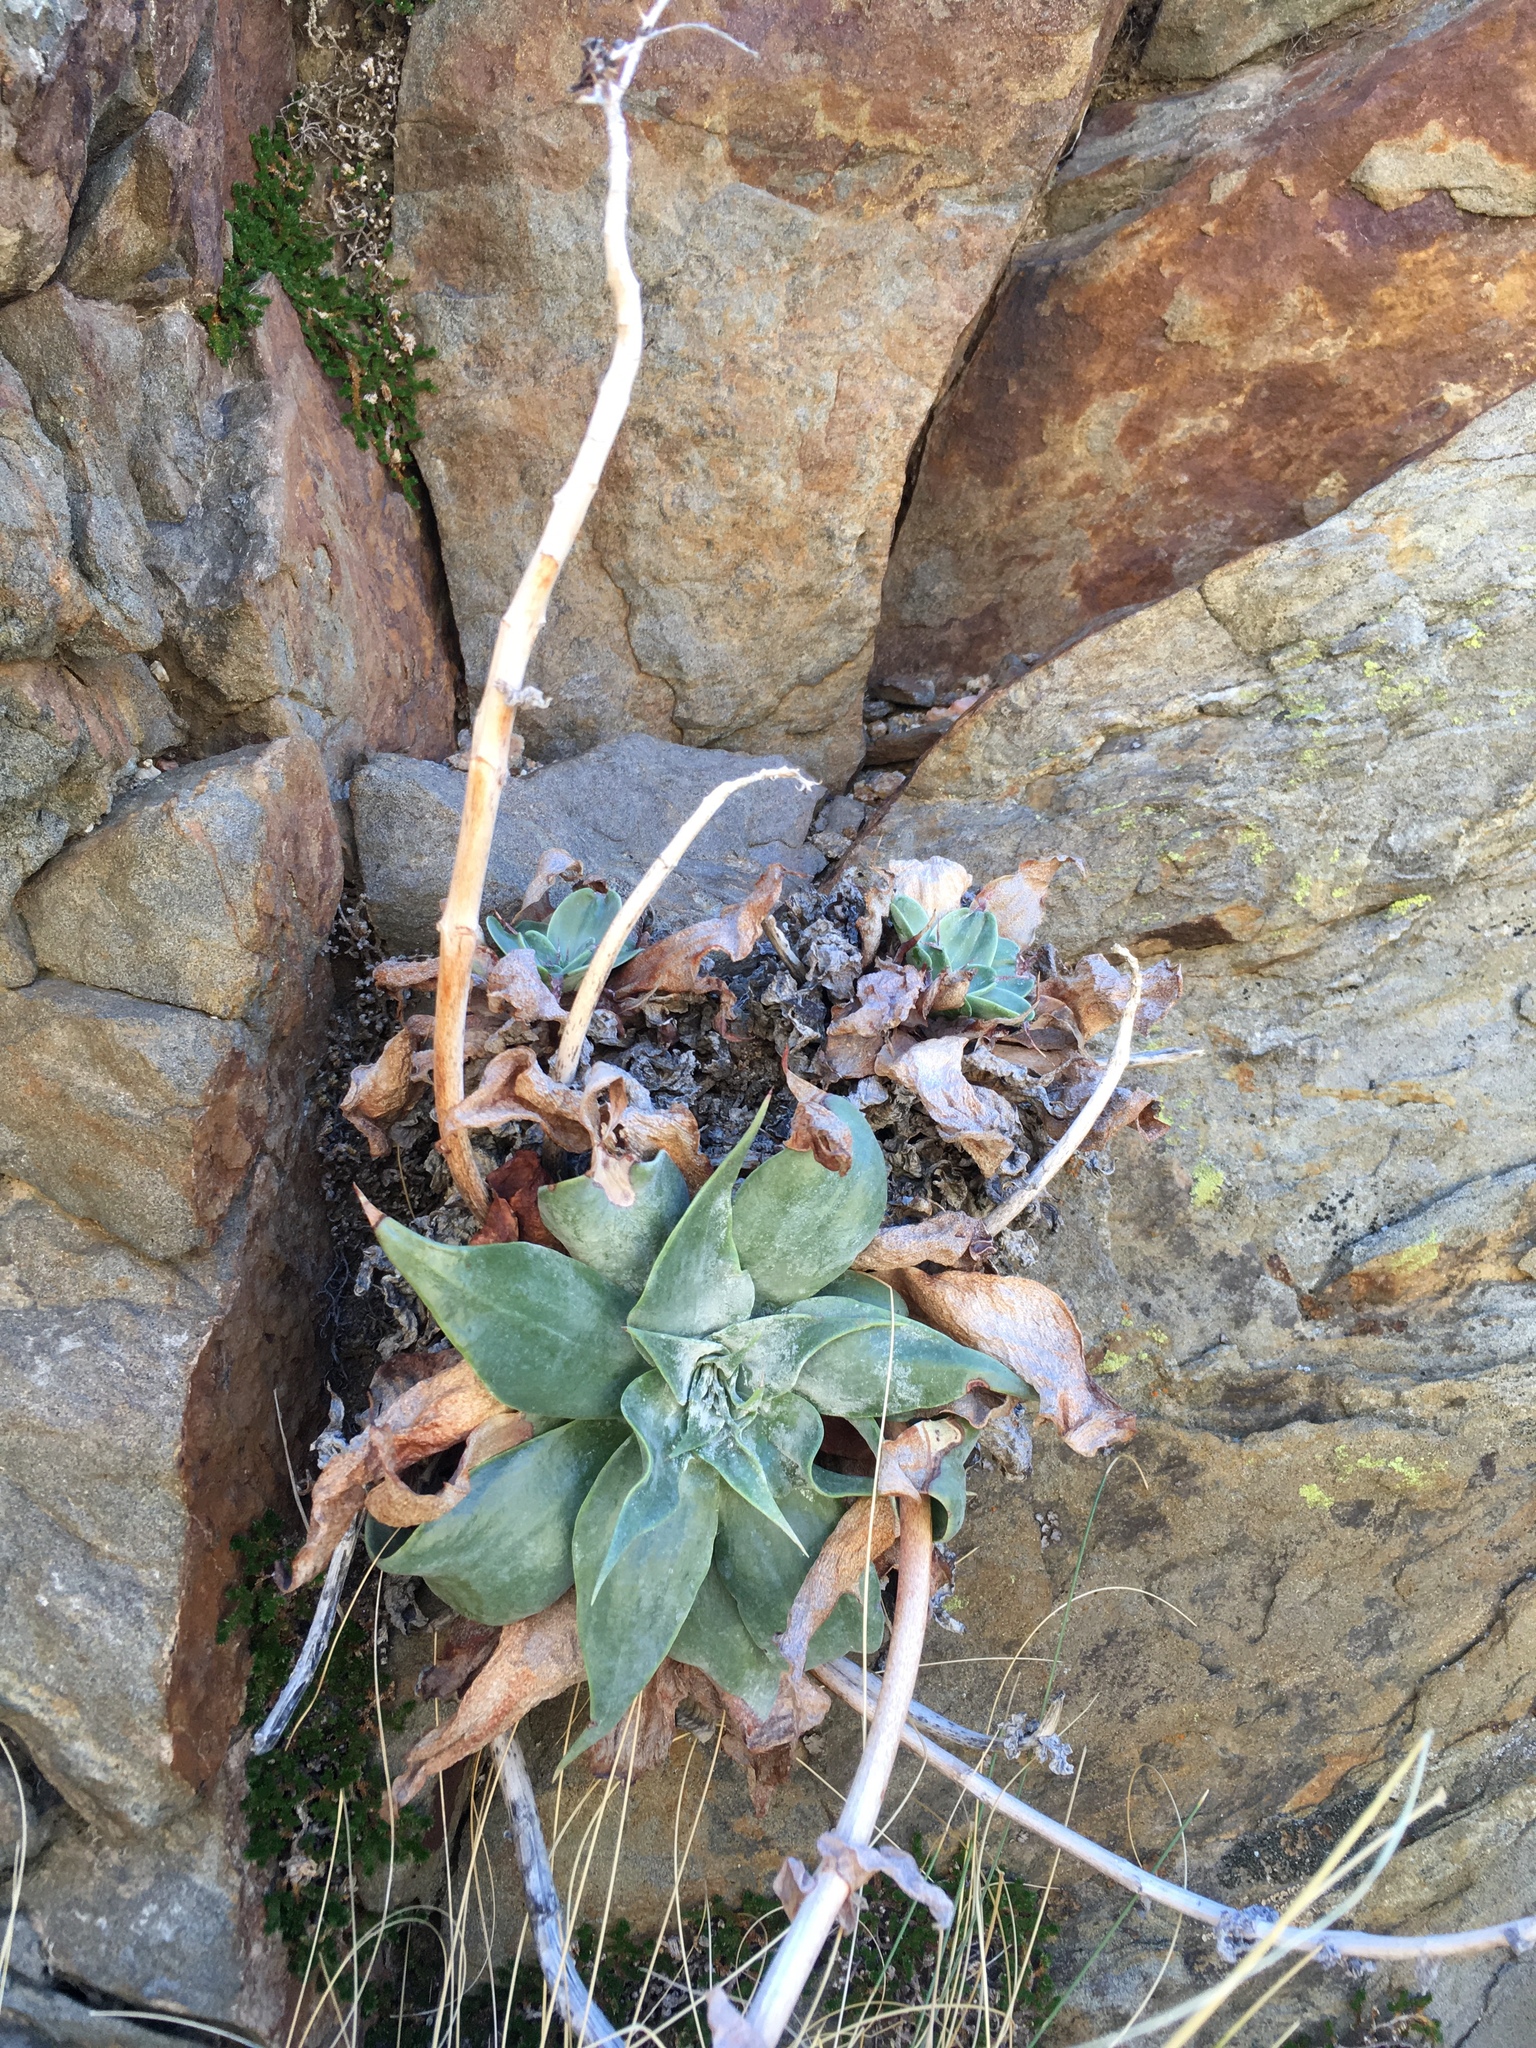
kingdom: Plantae
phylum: Tracheophyta
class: Magnoliopsida
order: Saxifragales
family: Crassulaceae
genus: Dudleya
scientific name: Dudleya arizonica
